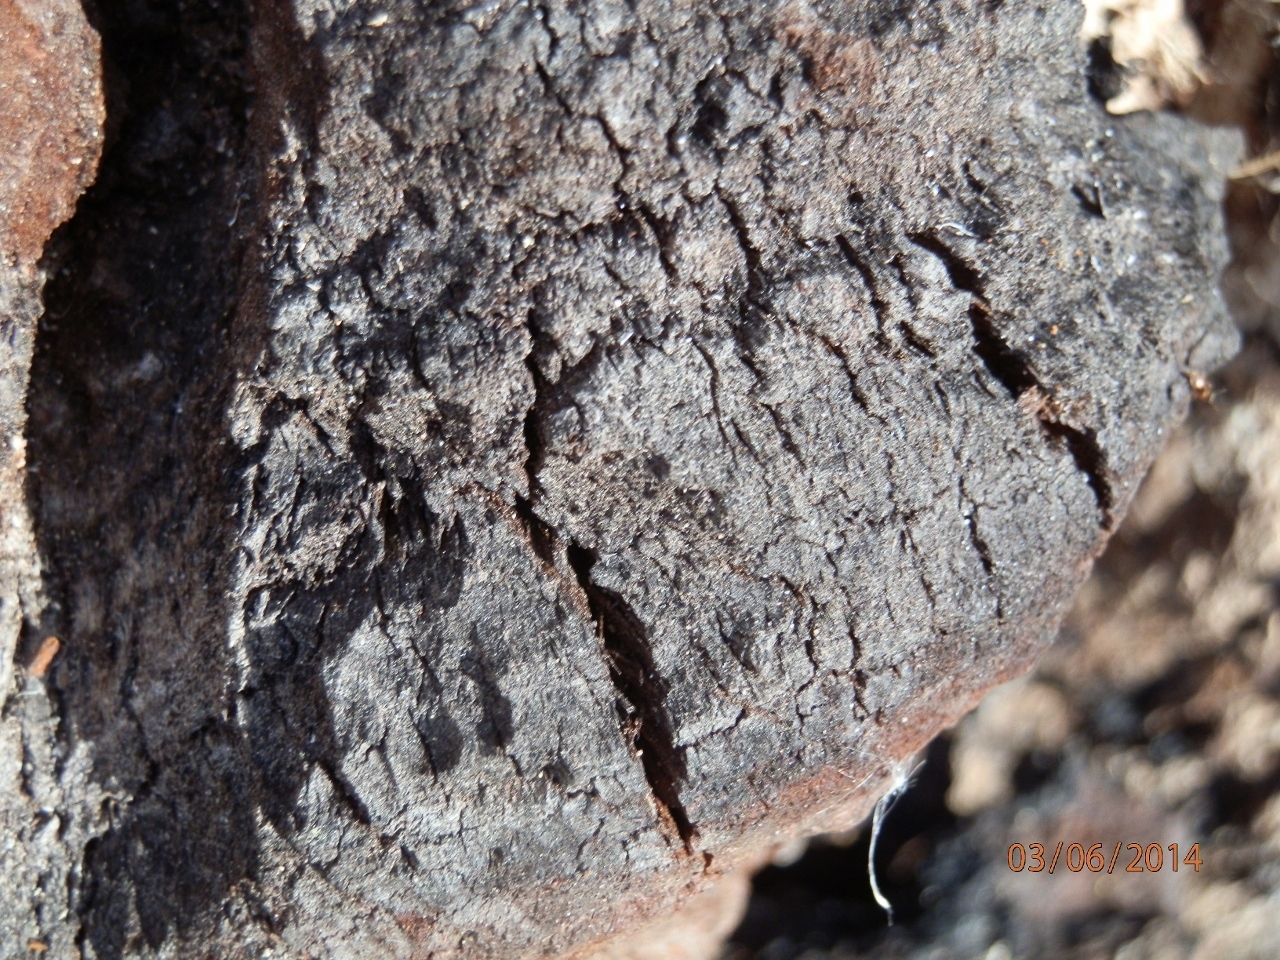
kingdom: Fungi
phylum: Basidiomycota
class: Agaricomycetes
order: Hymenochaetales
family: Hymenochaetaceae
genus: Phellinus
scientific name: Phellinus igniarius
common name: Willow bracket
